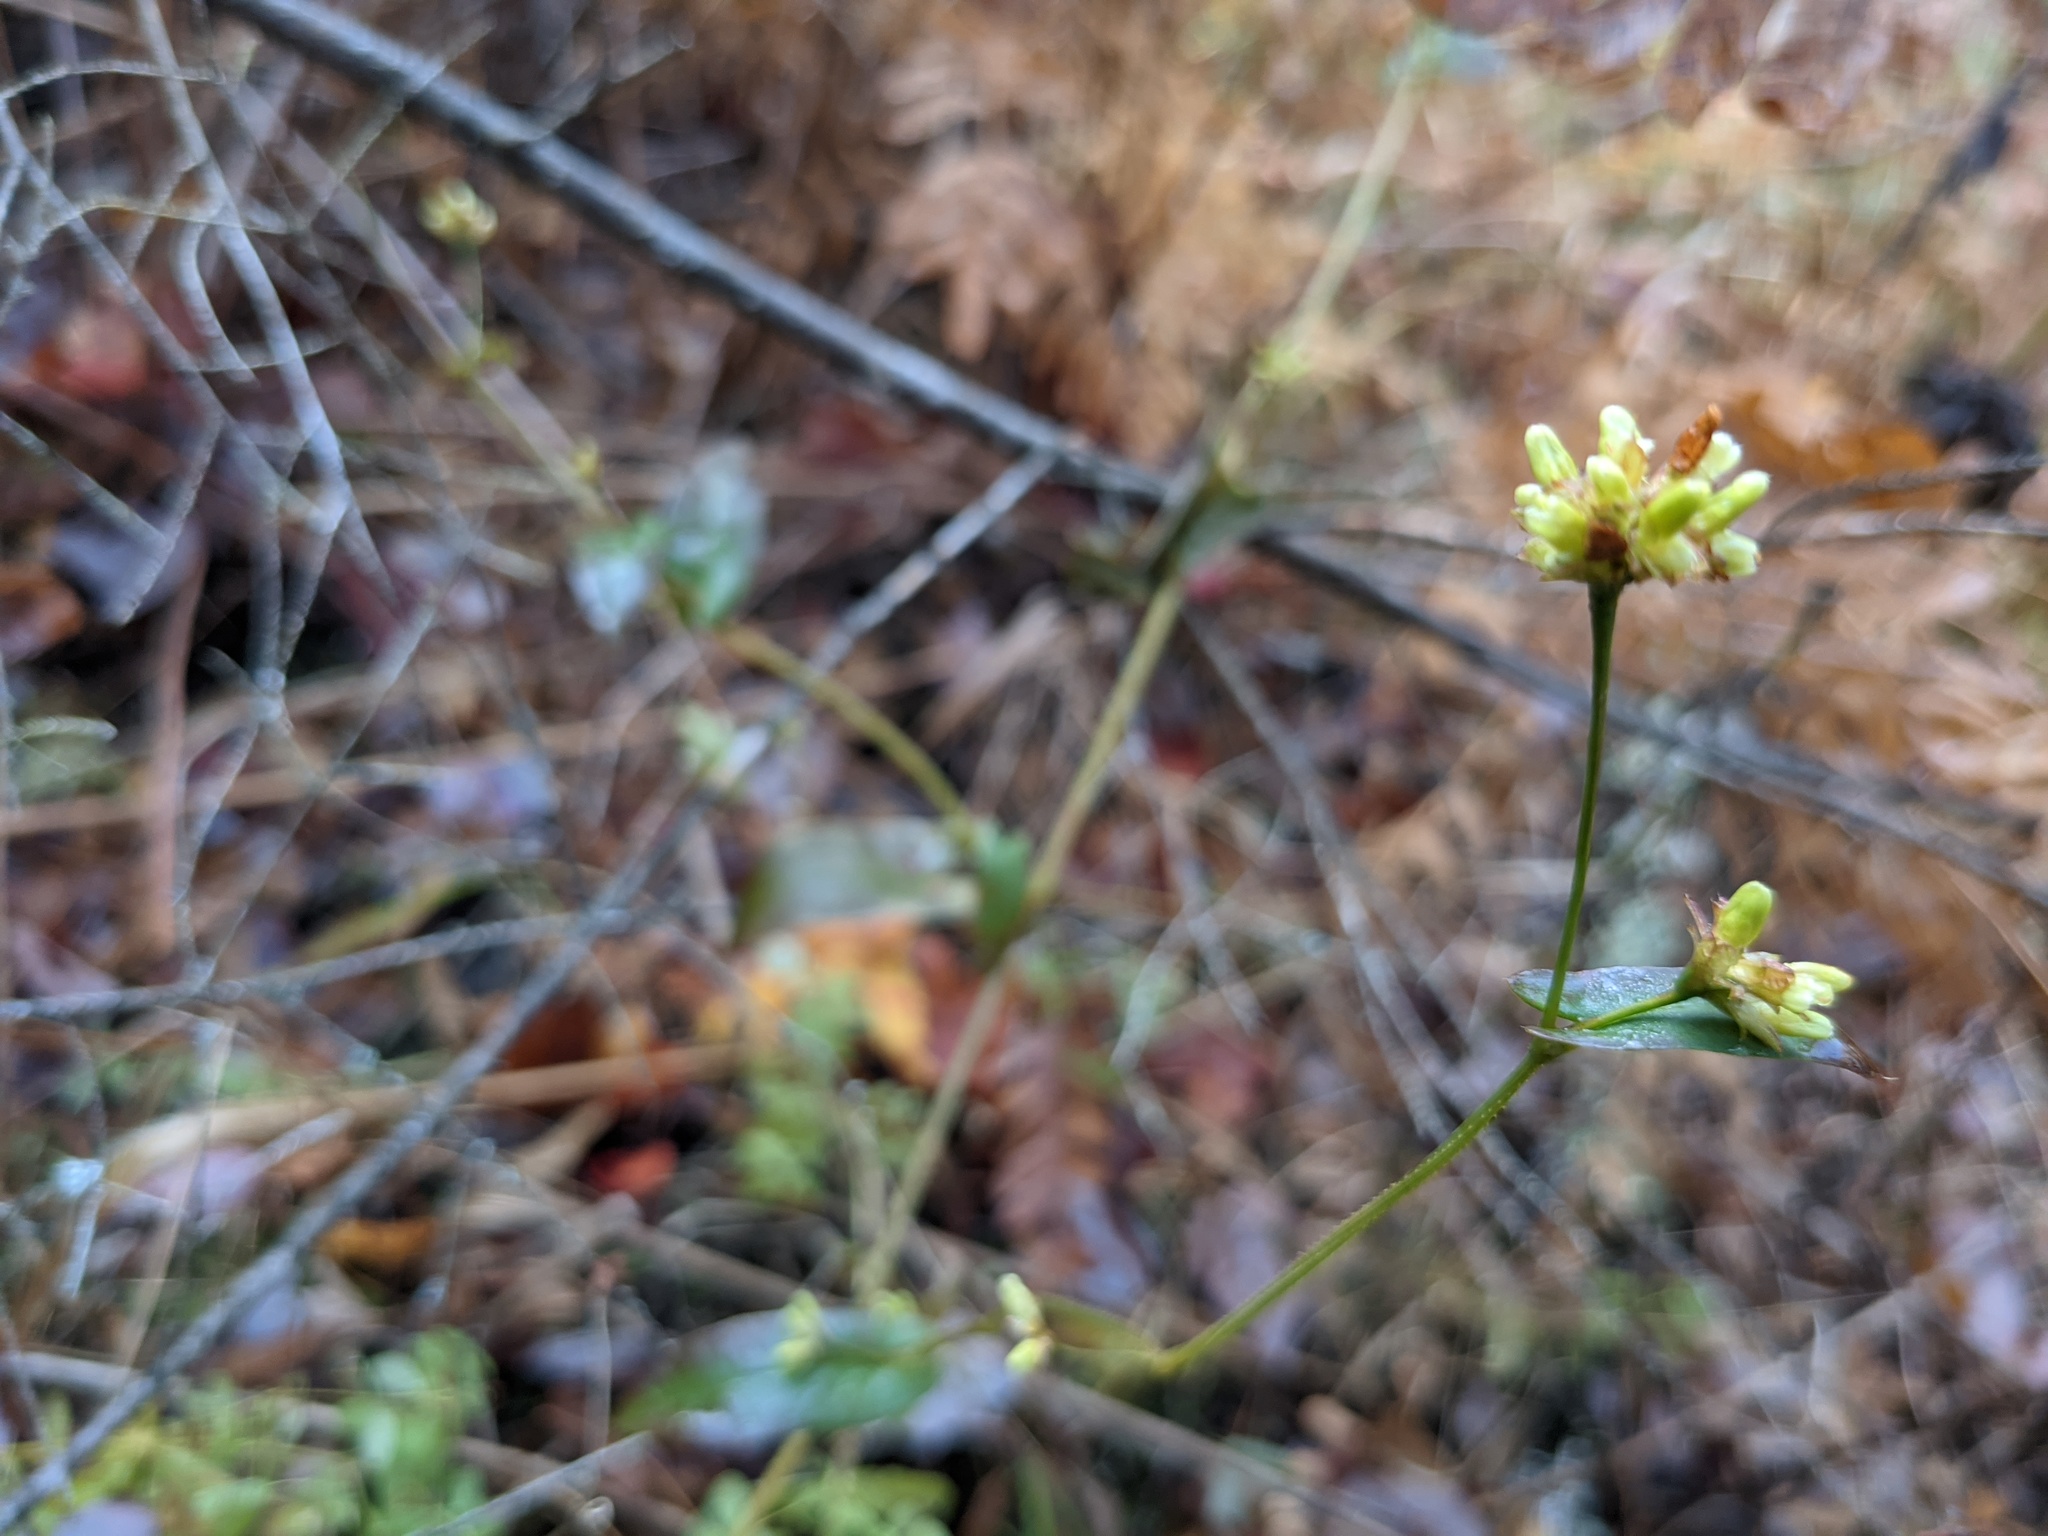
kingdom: Plantae
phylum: Tracheophyta
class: Magnoliopsida
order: Caryophyllales
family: Polygonaceae
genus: Persicaria
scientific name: Persicaria sagittata
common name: American tearthumb
